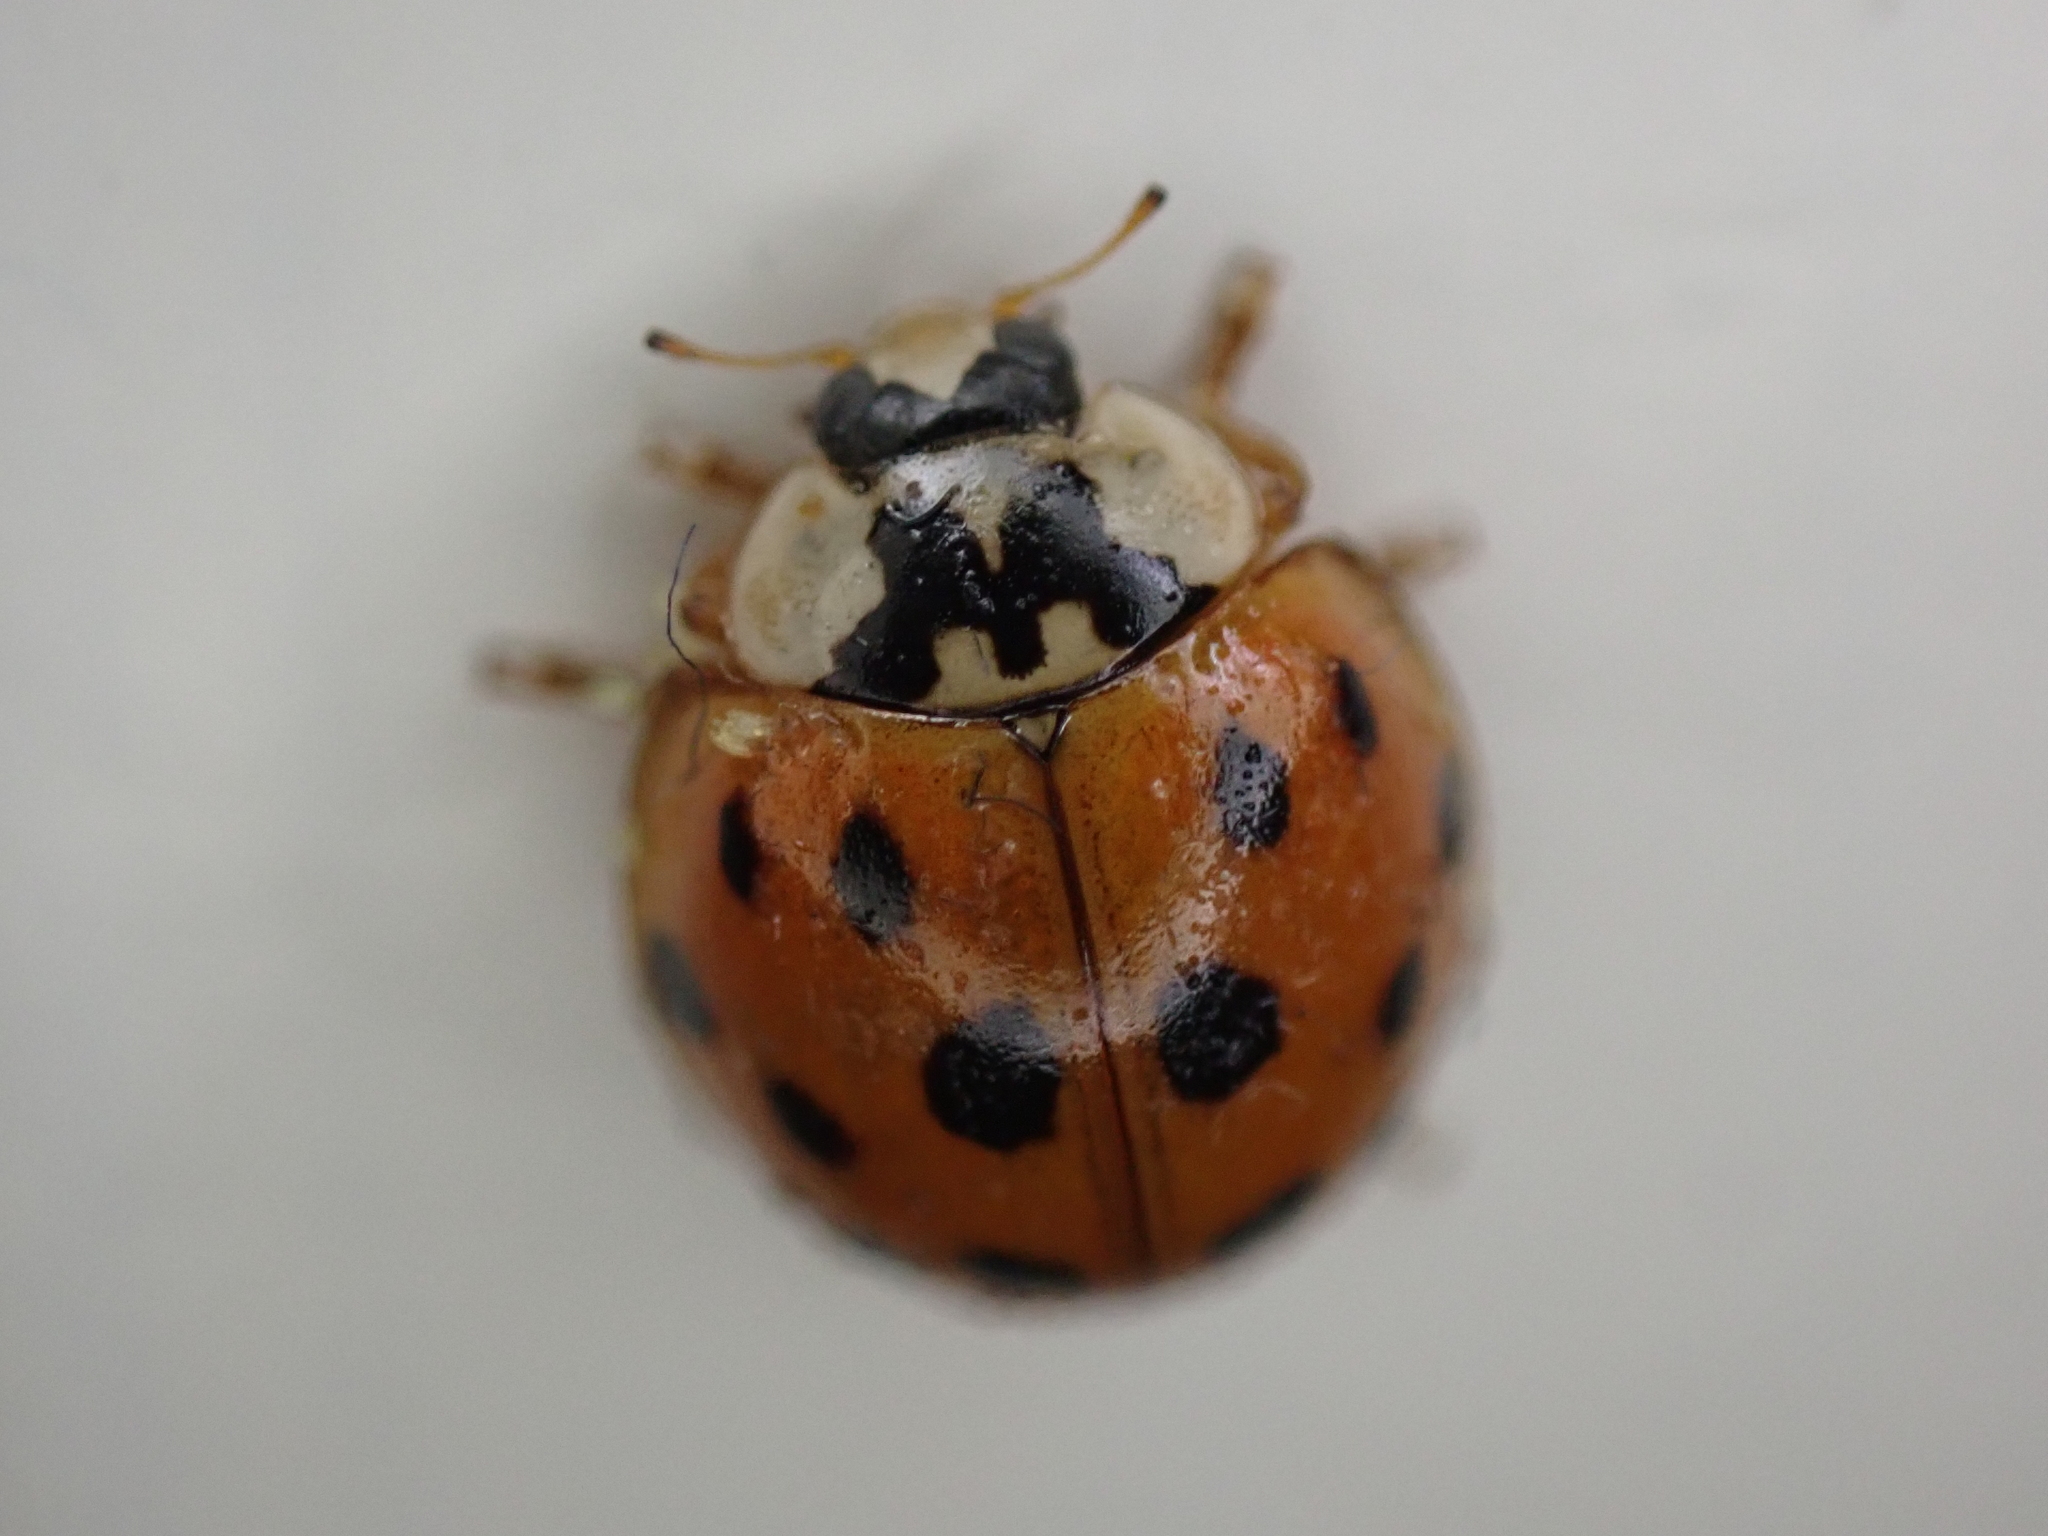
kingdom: Animalia
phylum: Arthropoda
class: Insecta
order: Coleoptera
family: Coccinellidae
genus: Harmonia
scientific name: Harmonia axyridis
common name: Harlequin ladybird
